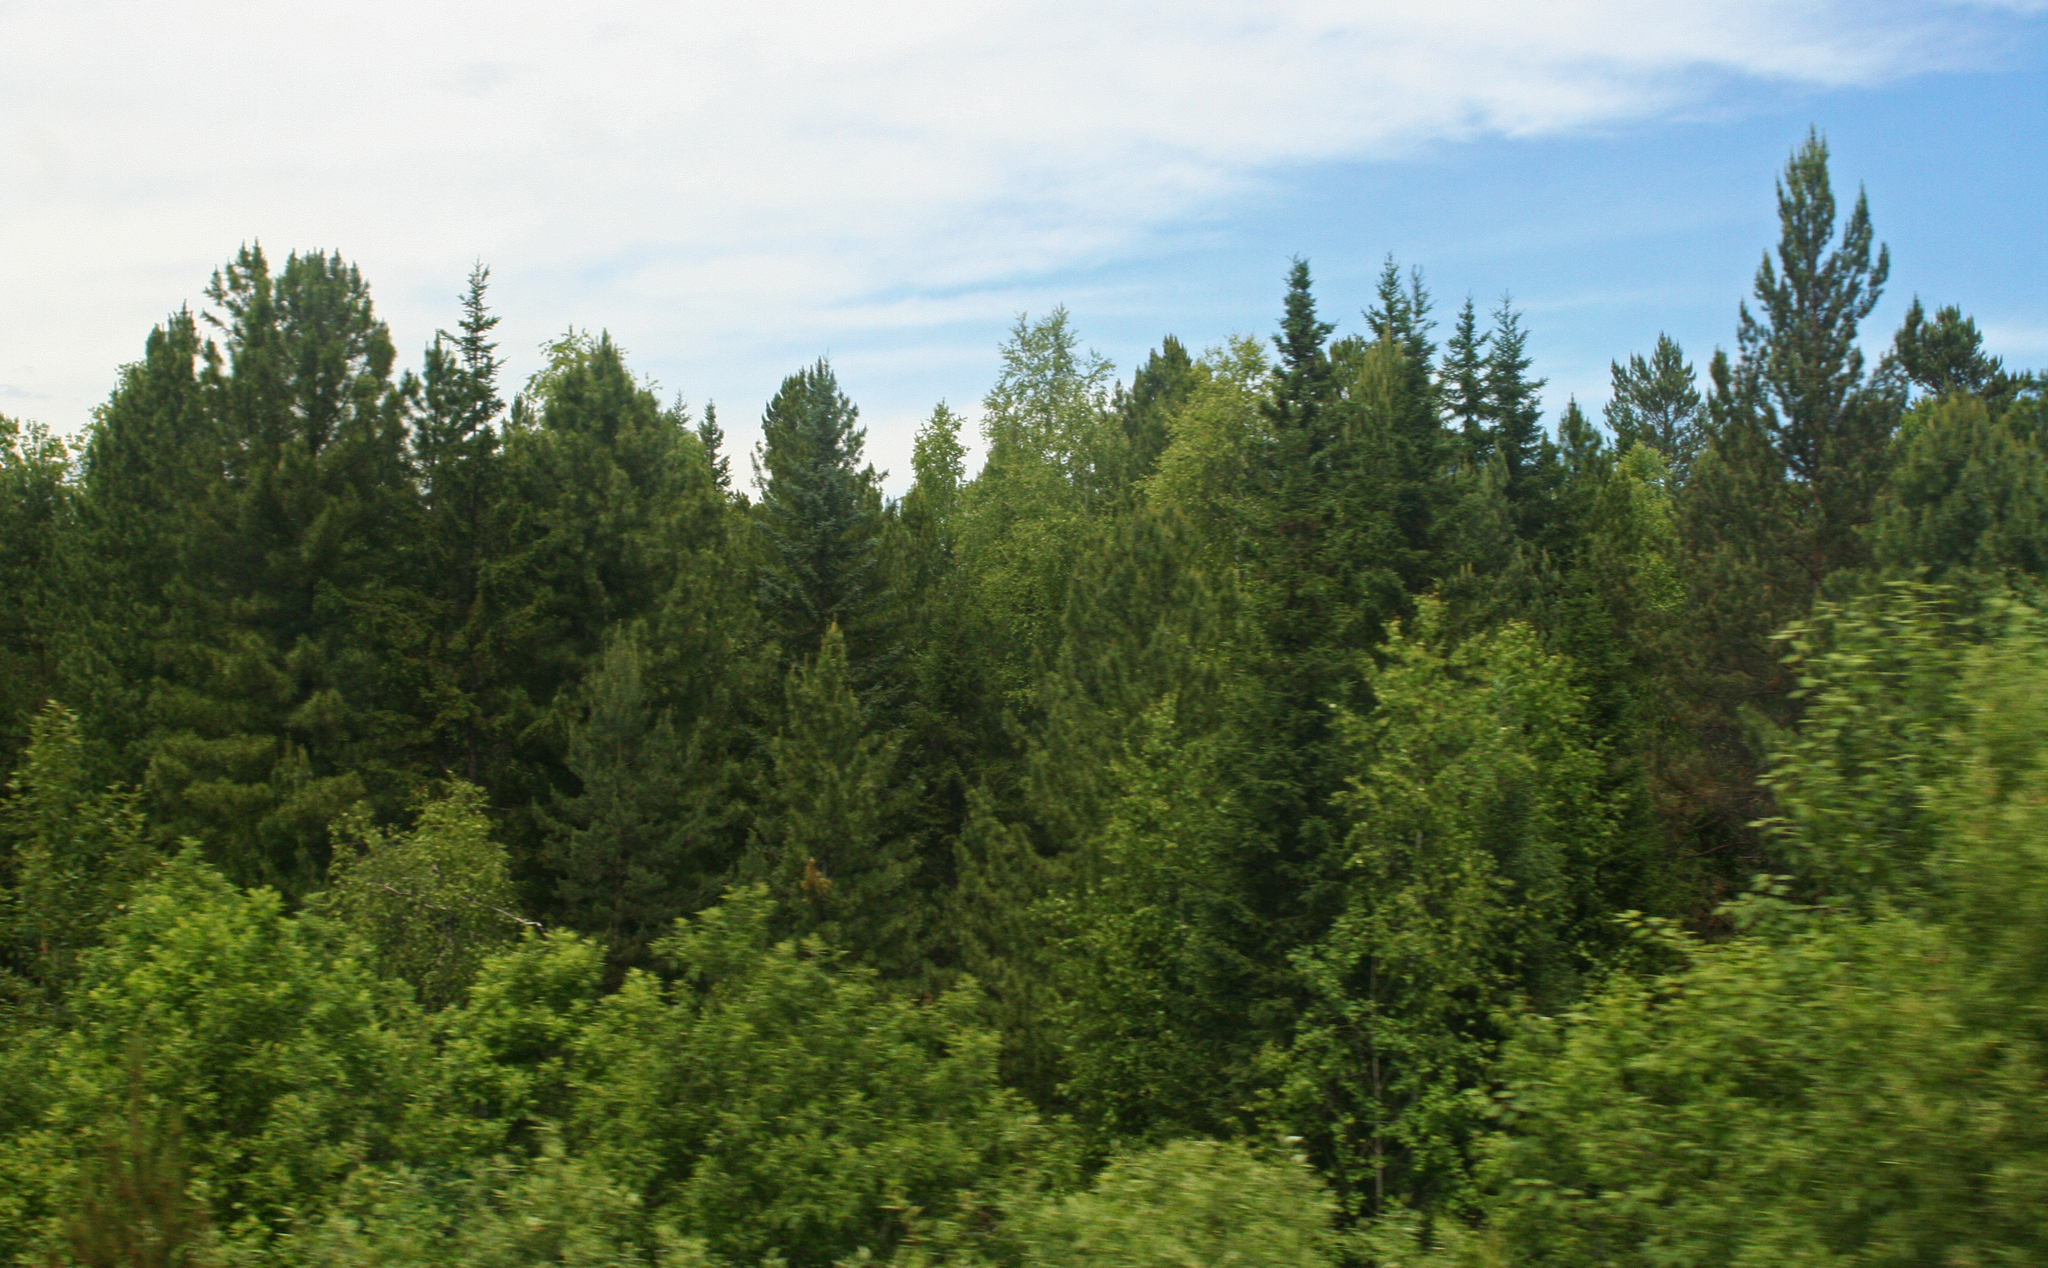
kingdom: Plantae
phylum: Tracheophyta
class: Pinopsida
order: Pinales
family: Pinaceae
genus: Picea
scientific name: Picea obovata
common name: Siberian spruce
